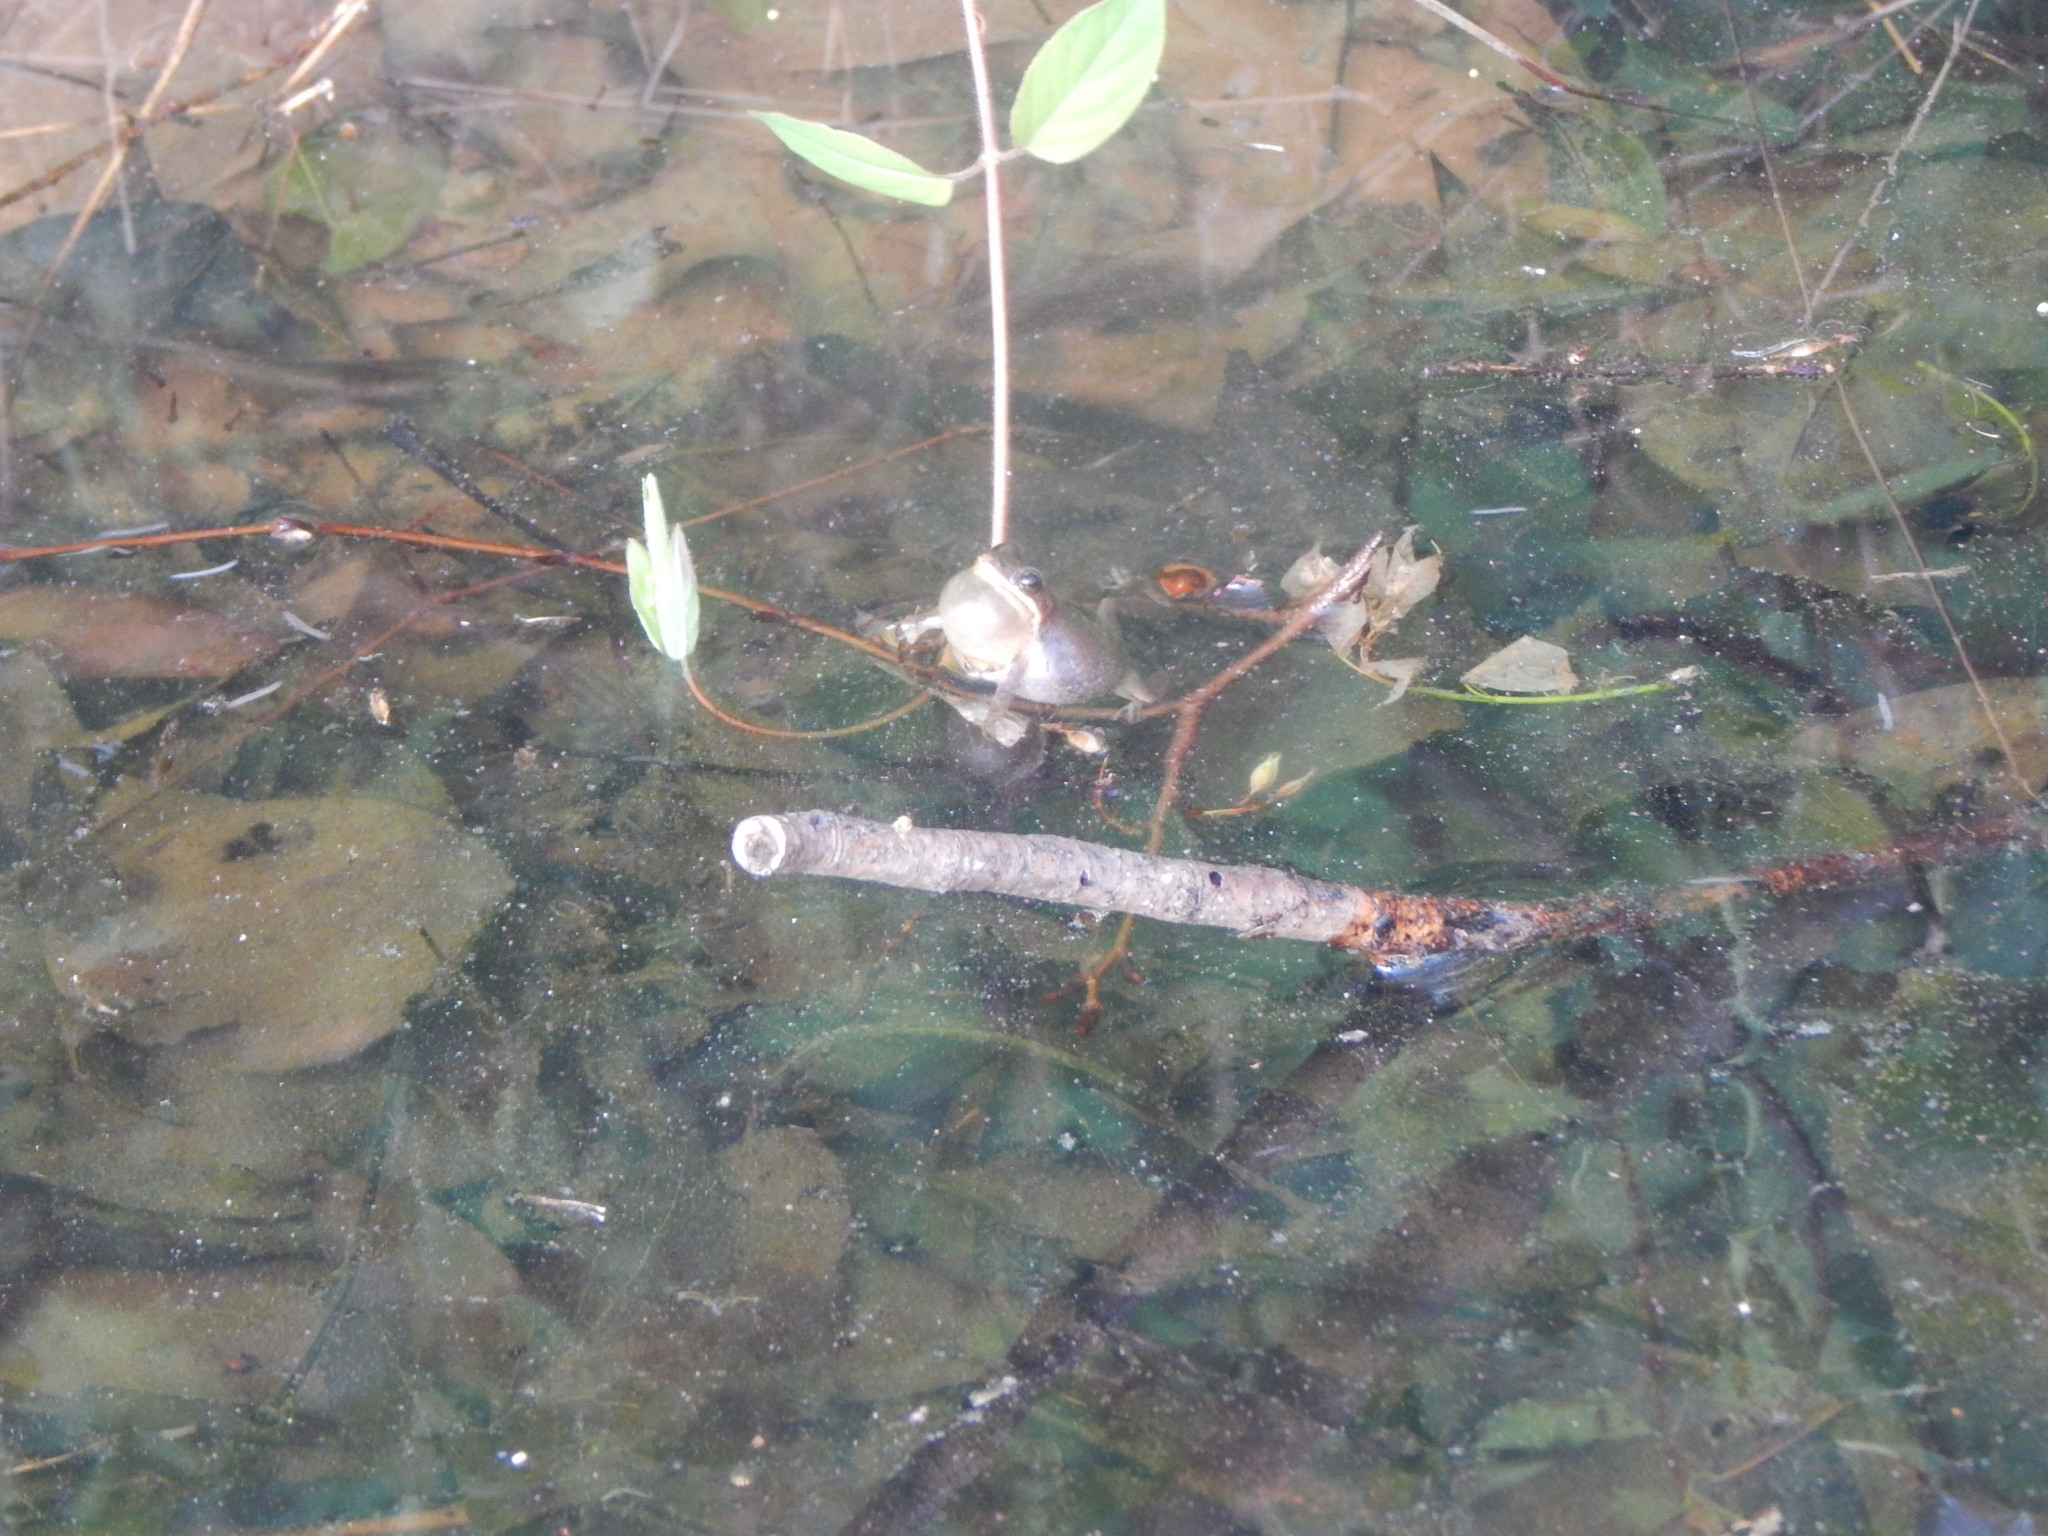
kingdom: Animalia
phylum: Chordata
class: Amphibia
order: Anura
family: Hylidae
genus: Pseudacris
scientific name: Pseudacris feriarum
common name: Upland chorus frog
